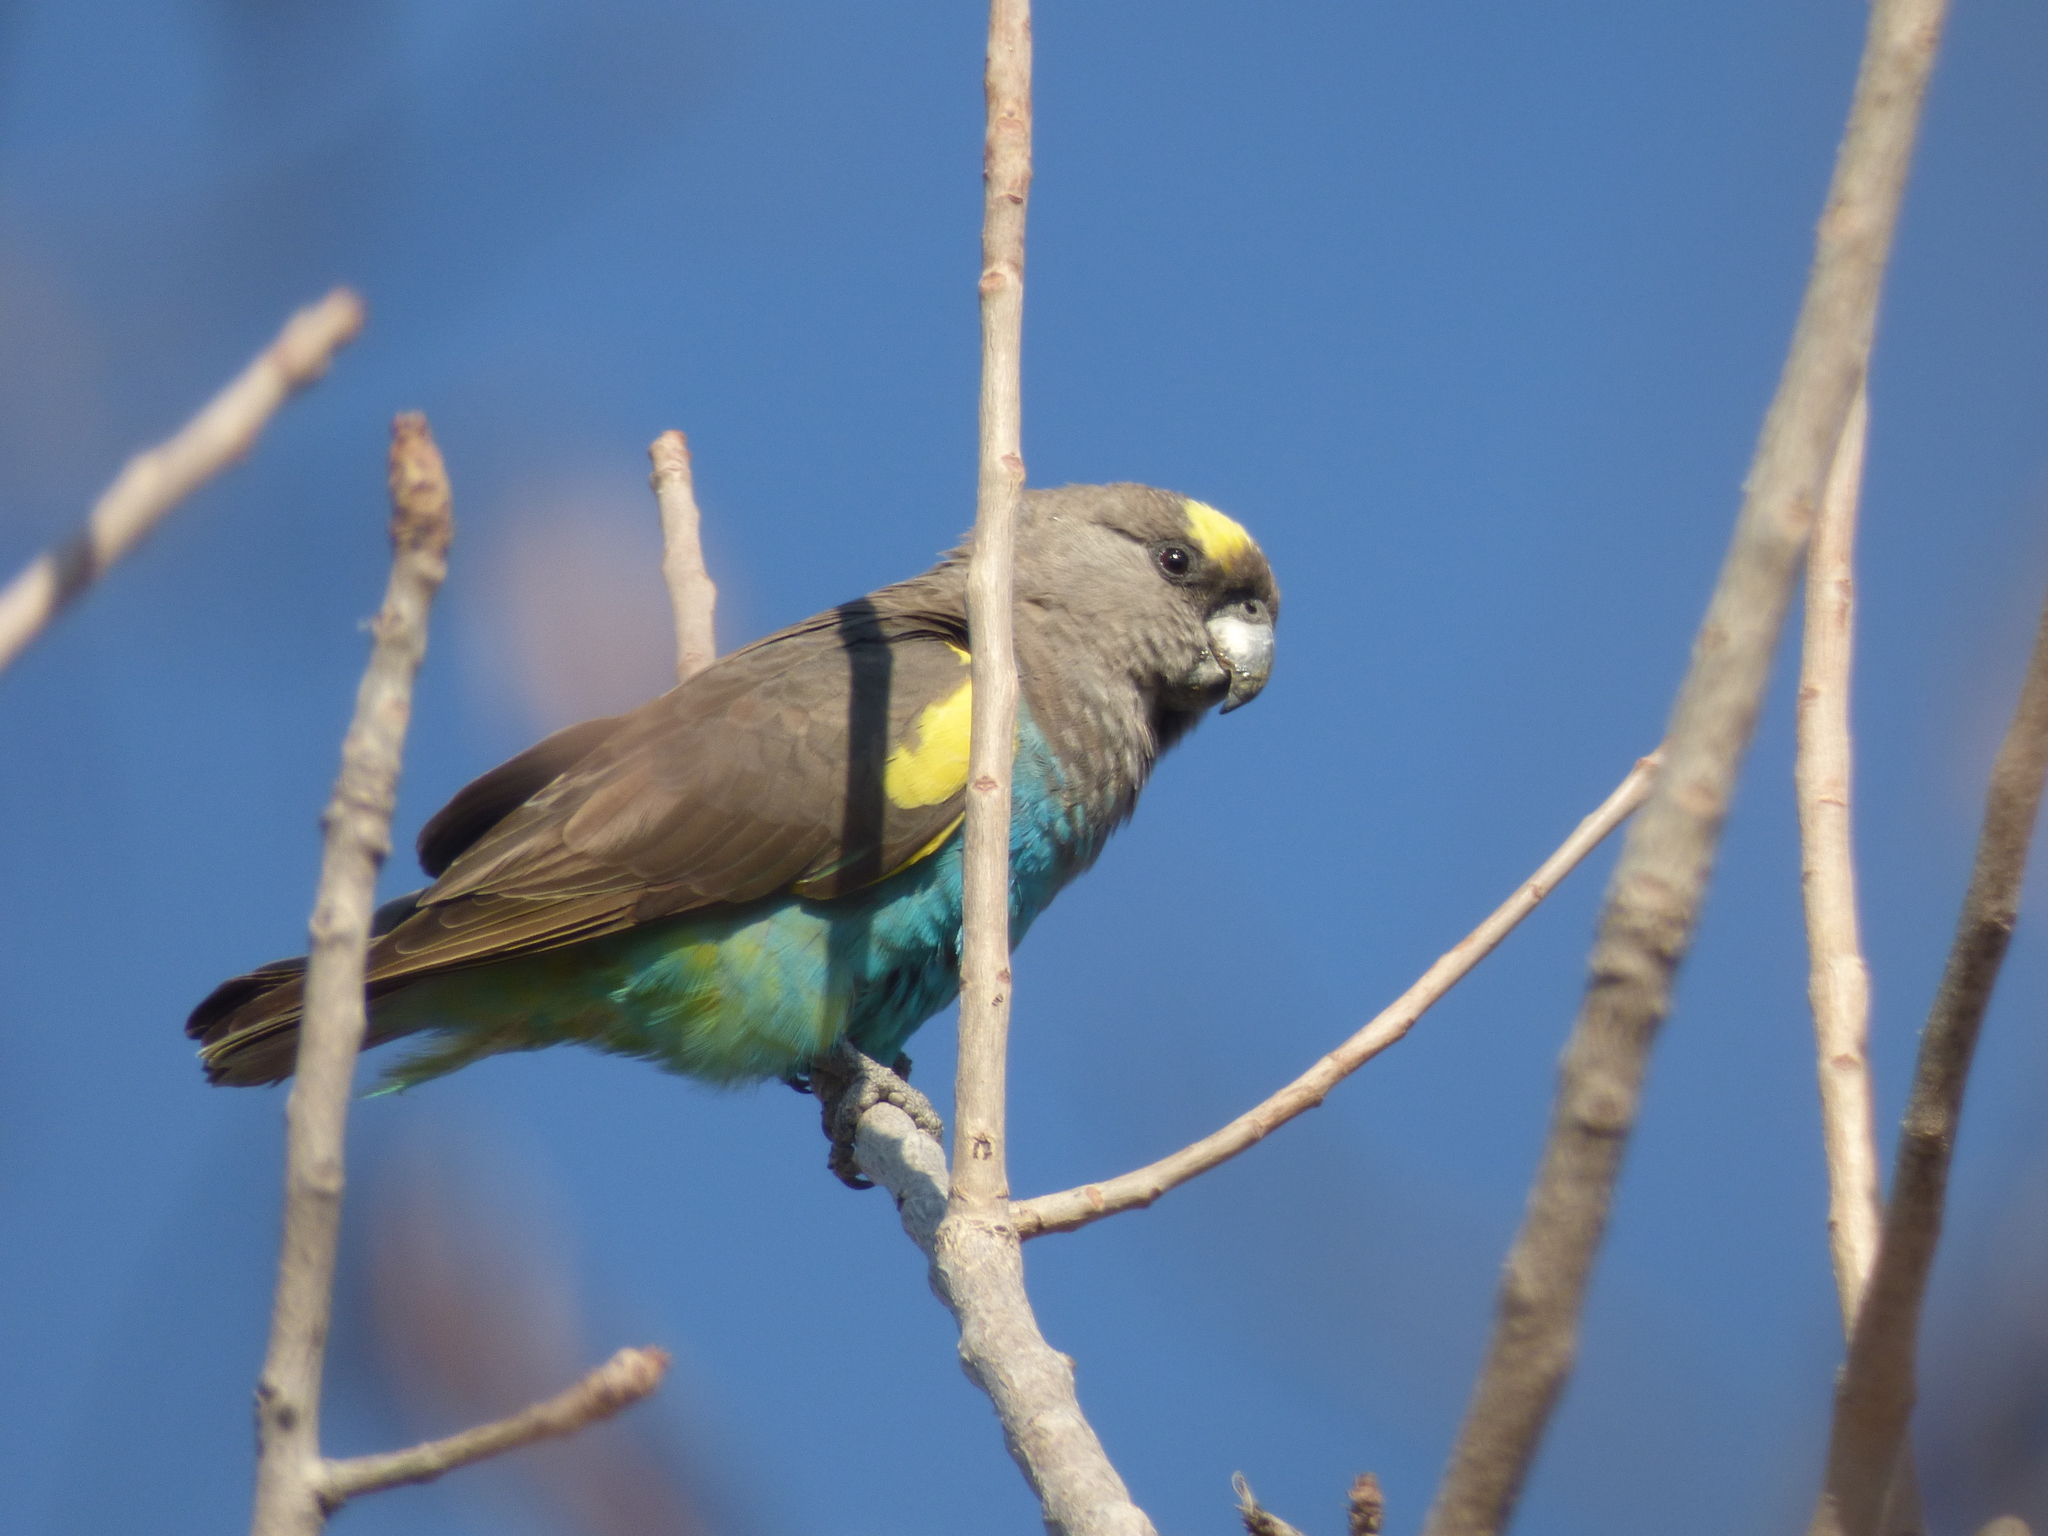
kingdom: Animalia
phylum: Chordata
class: Aves
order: Psittaciformes
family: Psittacidae
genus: Poicephalus
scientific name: Poicephalus meyeri
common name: Meyer's parrot
